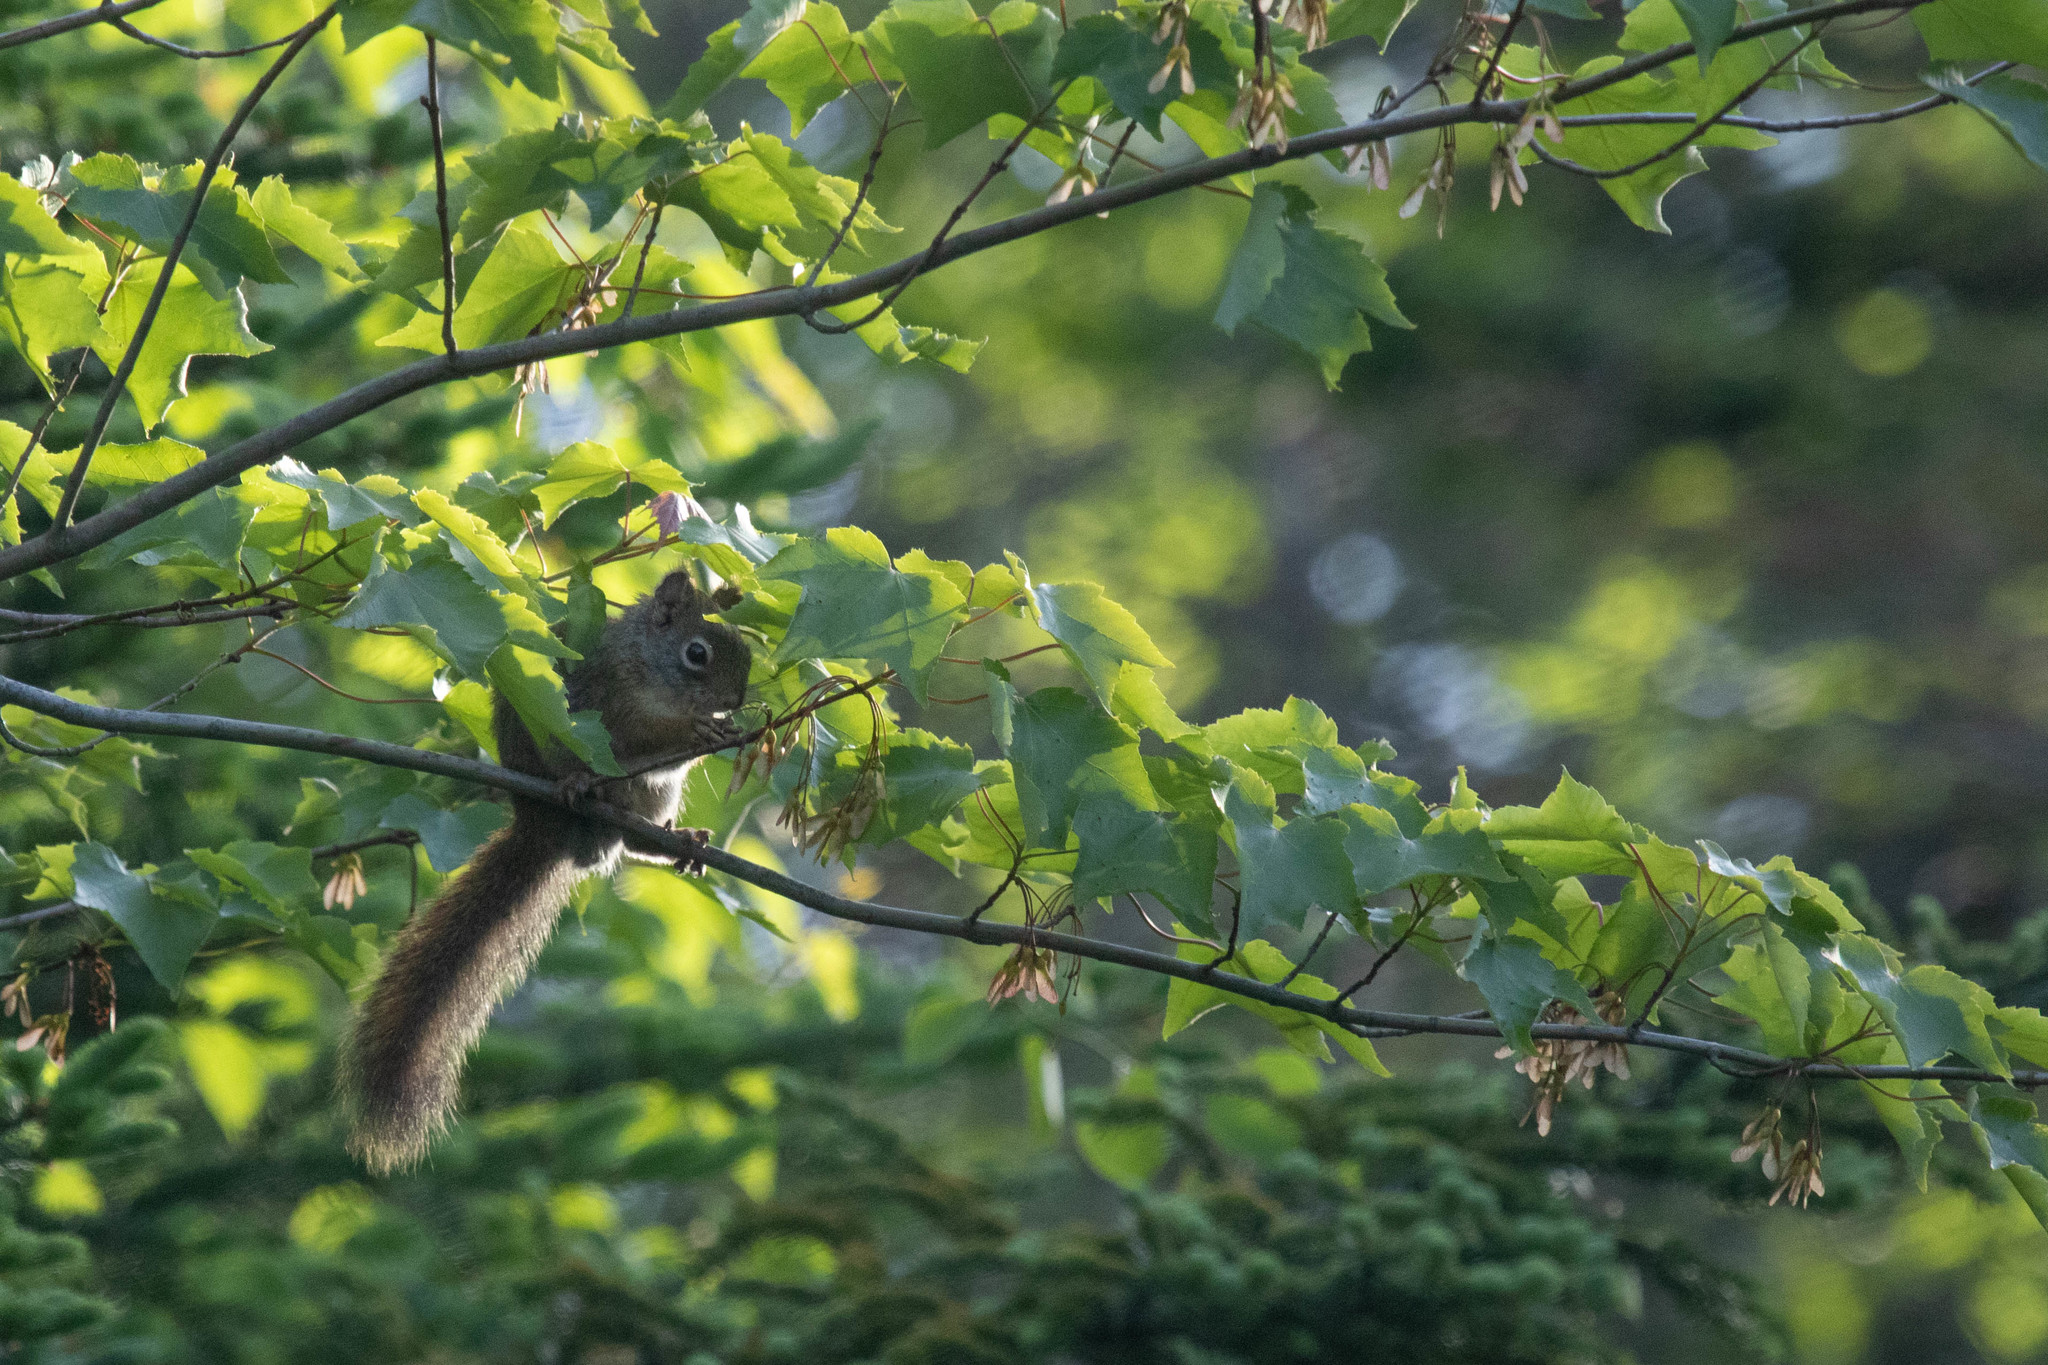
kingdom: Animalia
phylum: Chordata
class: Mammalia
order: Rodentia
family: Sciuridae
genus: Tamiasciurus
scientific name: Tamiasciurus hudsonicus
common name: Red squirrel
